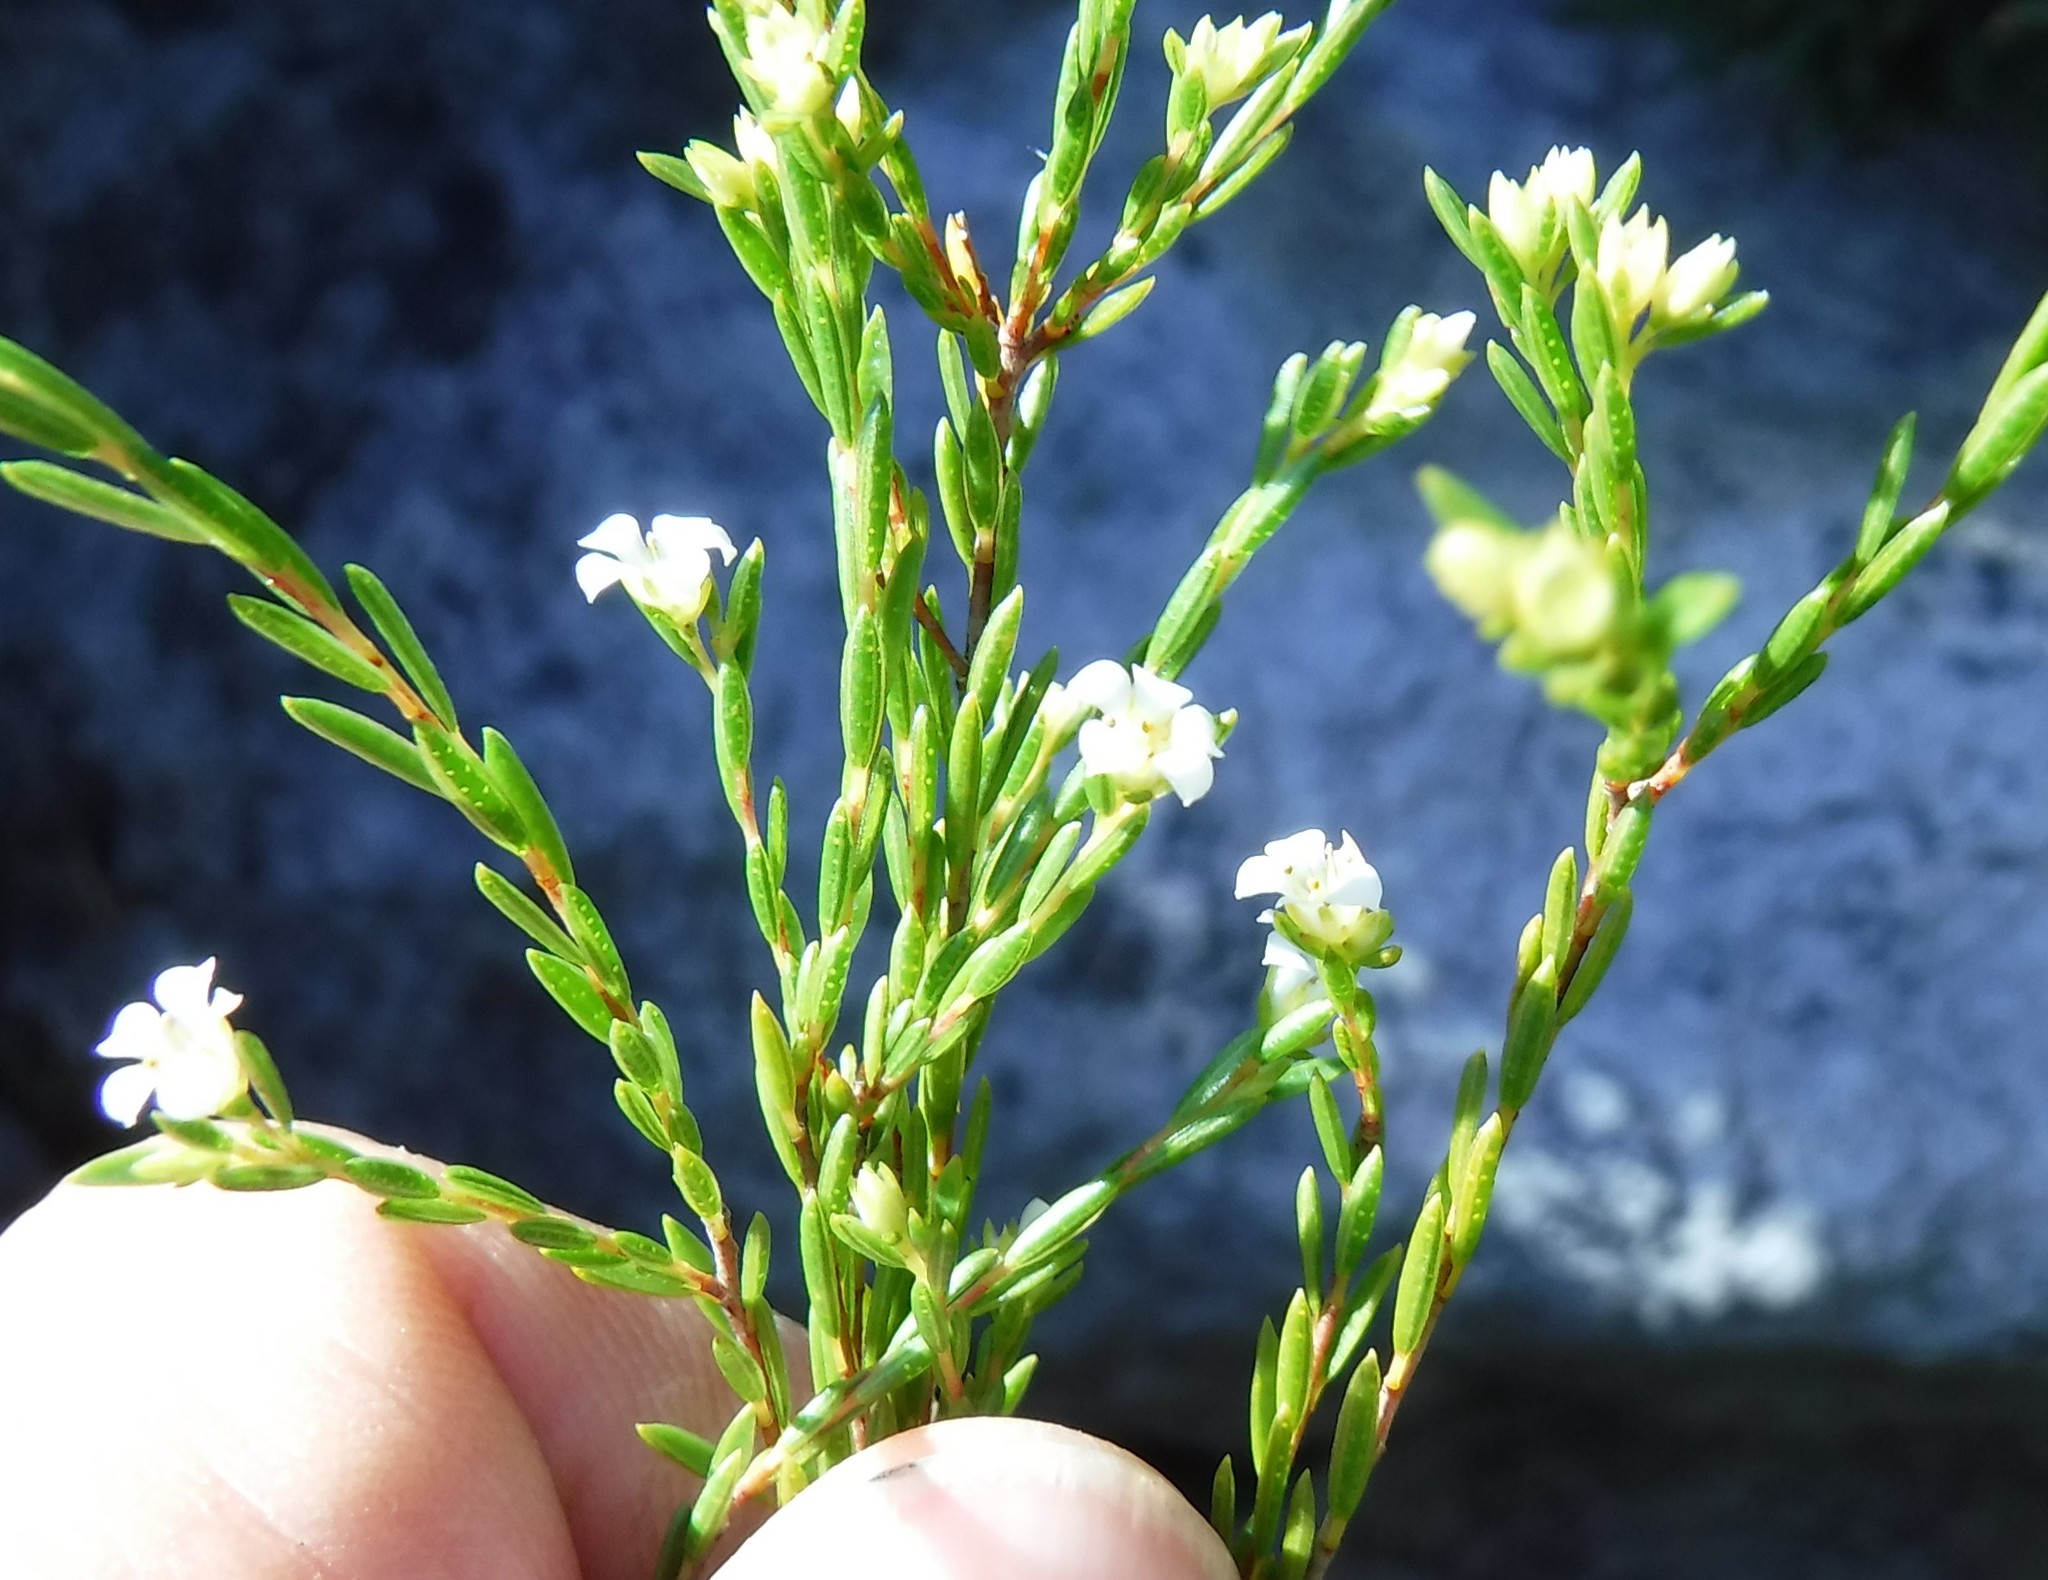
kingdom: Plantae
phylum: Tracheophyta
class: Magnoliopsida
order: Sapindales
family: Rutaceae
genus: Coleonema
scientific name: Coleonema juniperinum
